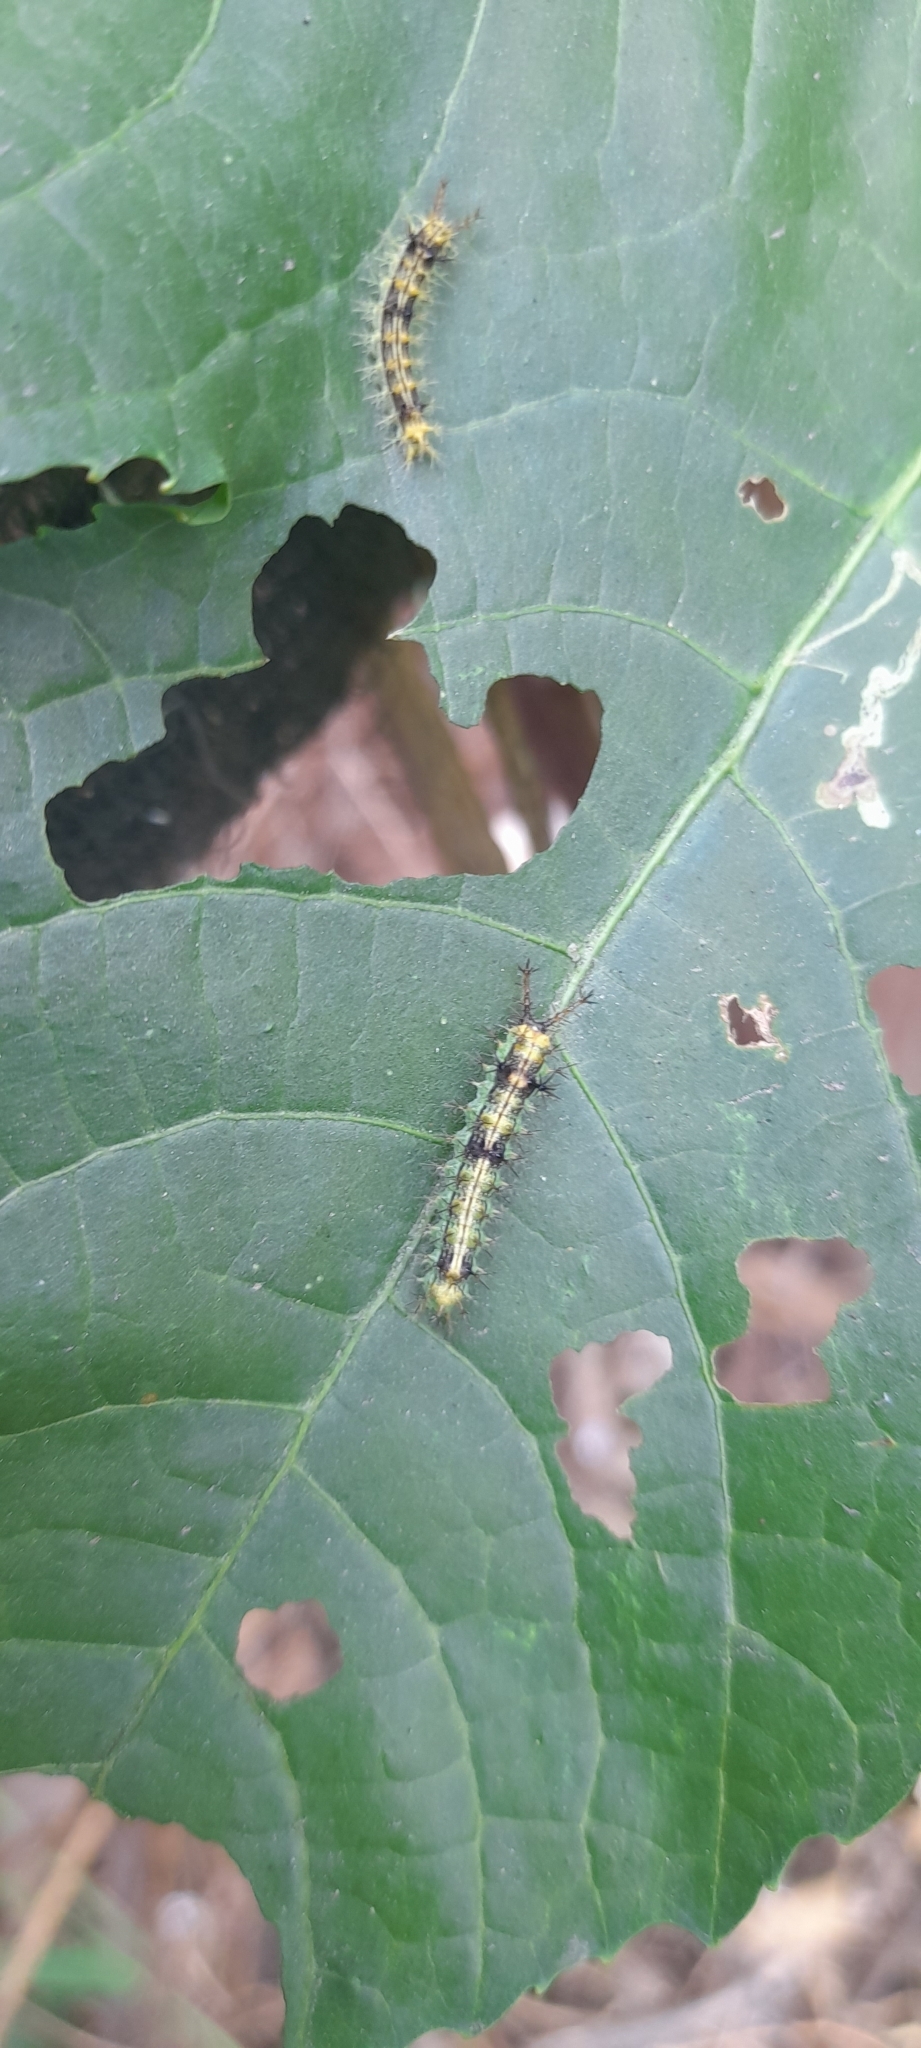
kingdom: Animalia
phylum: Arthropoda
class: Insecta
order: Lepidoptera
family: Nymphalidae
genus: Ariadne
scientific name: Ariadne merione
